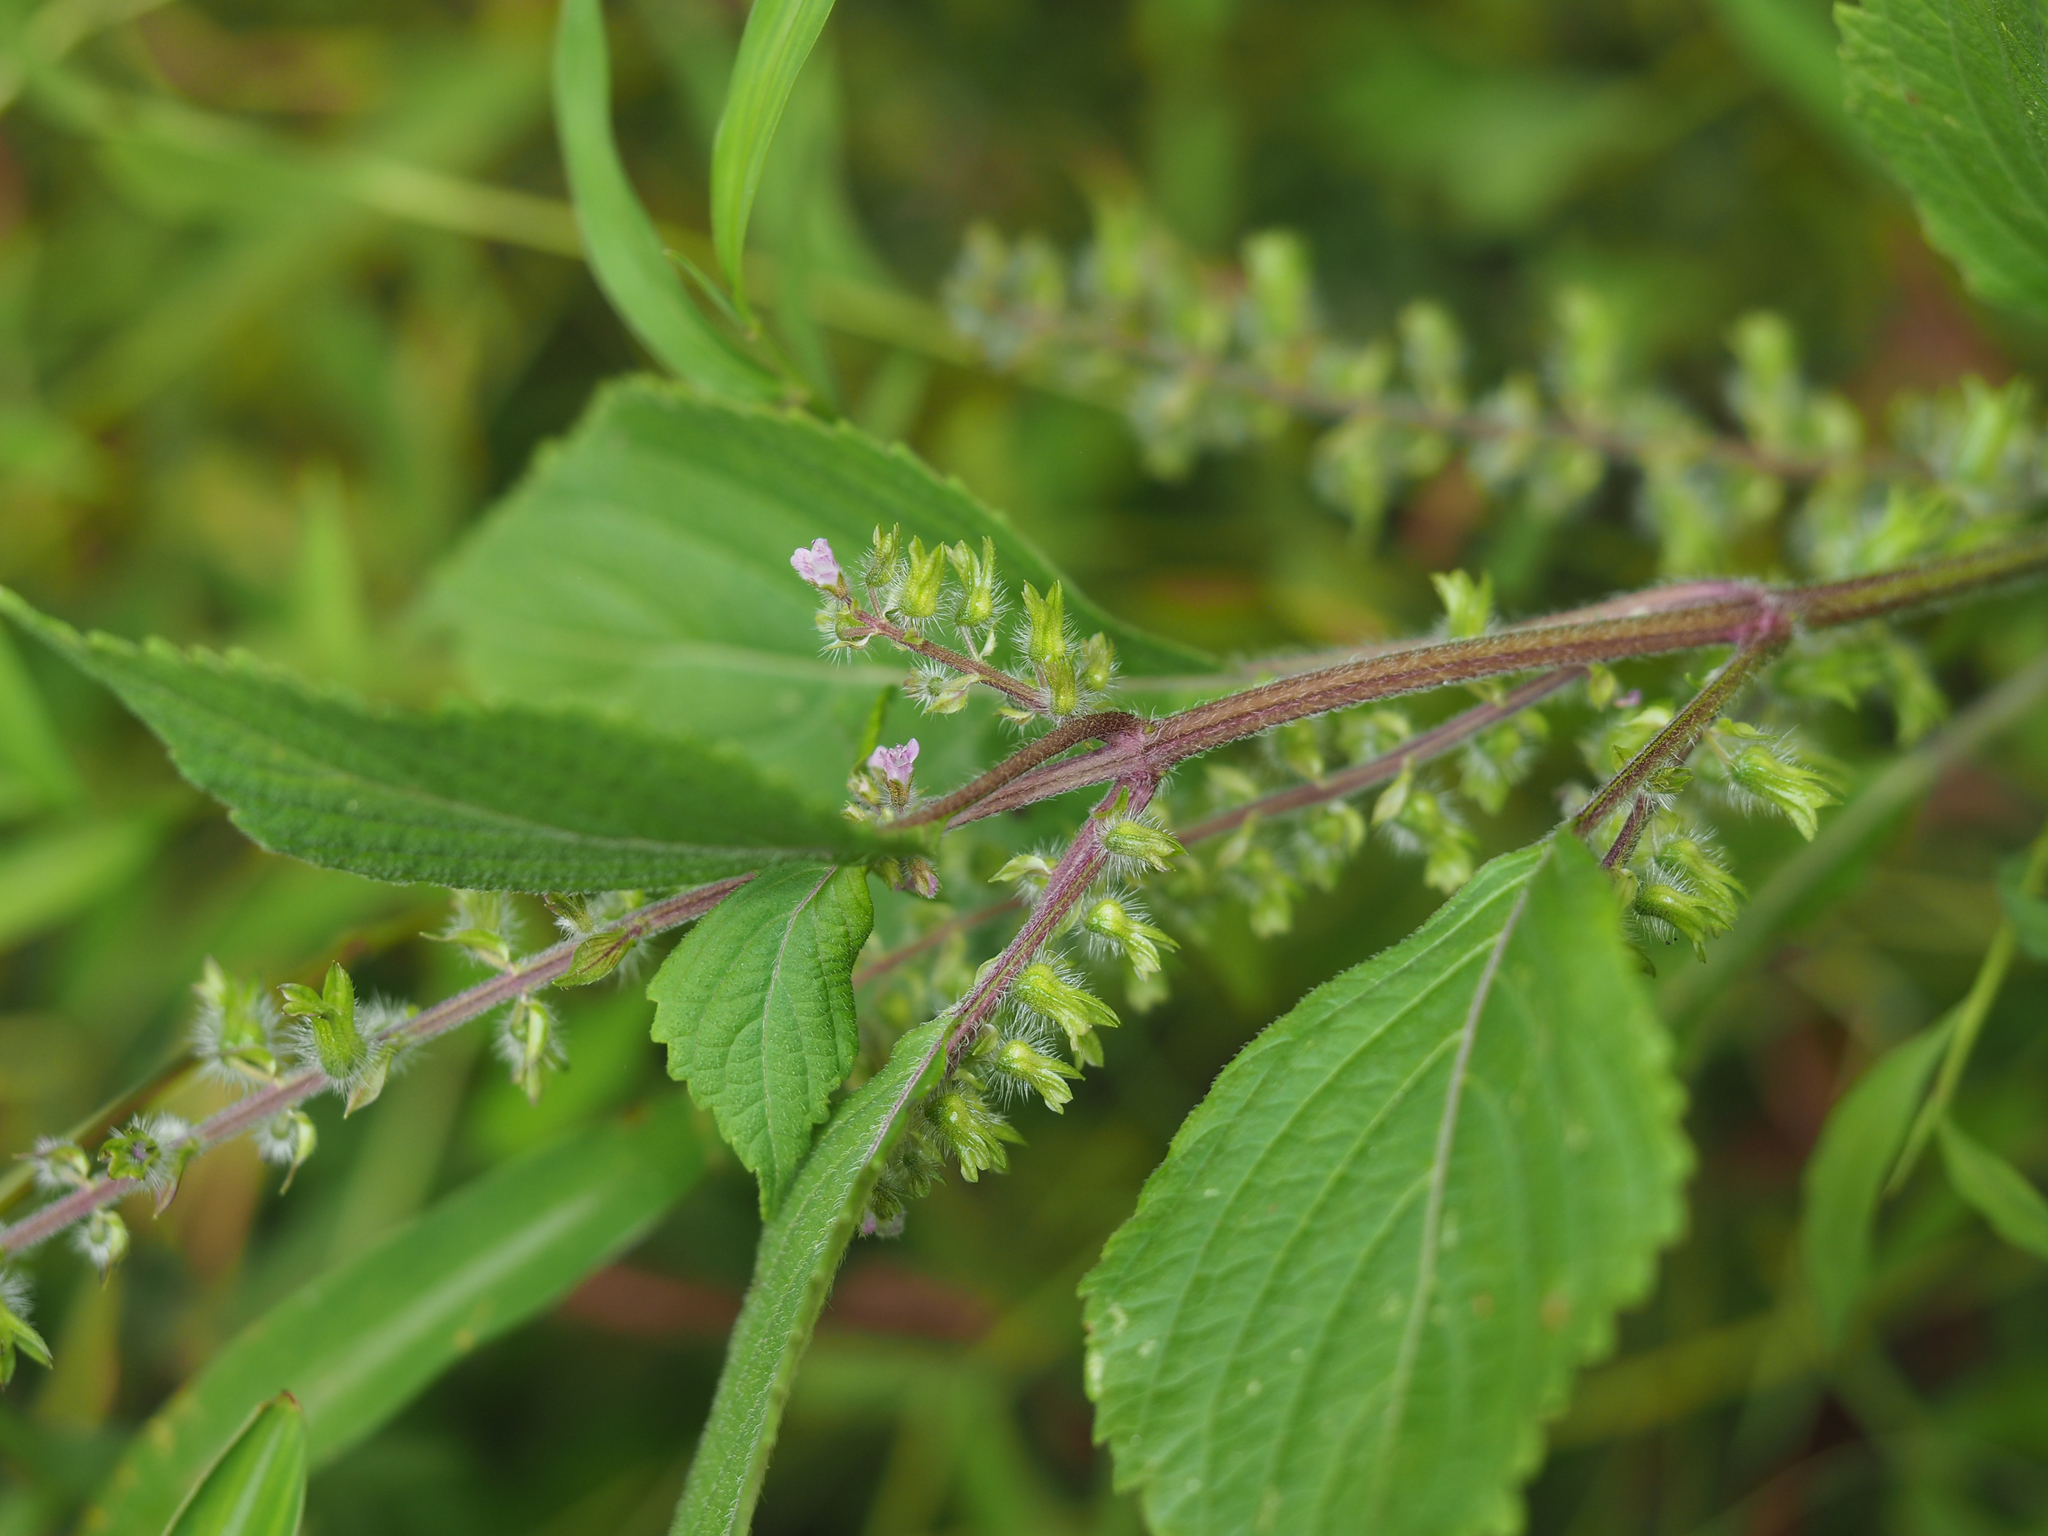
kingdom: Plantae
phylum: Tracheophyta
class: Magnoliopsida
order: Lamiales
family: Lamiaceae
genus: Perilla
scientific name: Perilla frutescens
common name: Perilla
